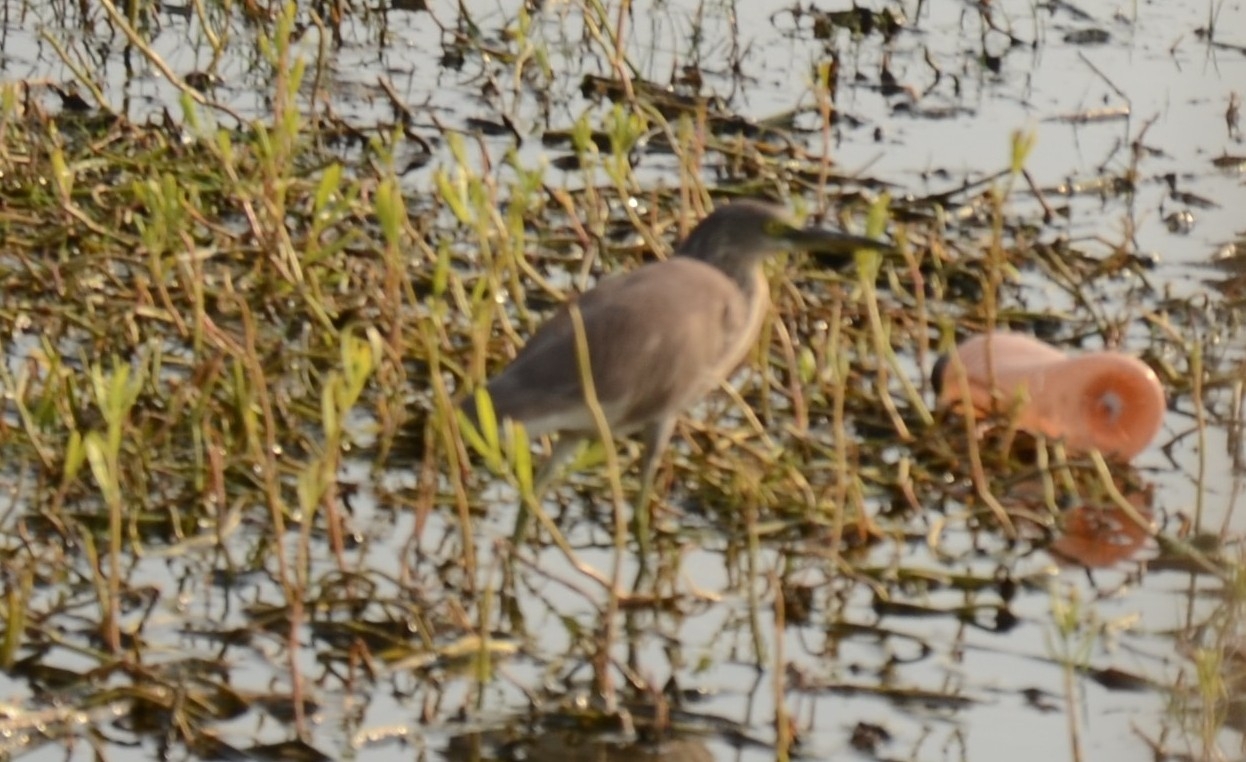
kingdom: Animalia
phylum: Chordata
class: Aves
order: Pelecaniformes
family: Ardeidae
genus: Ardeola
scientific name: Ardeola grayii
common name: Indian pond heron
